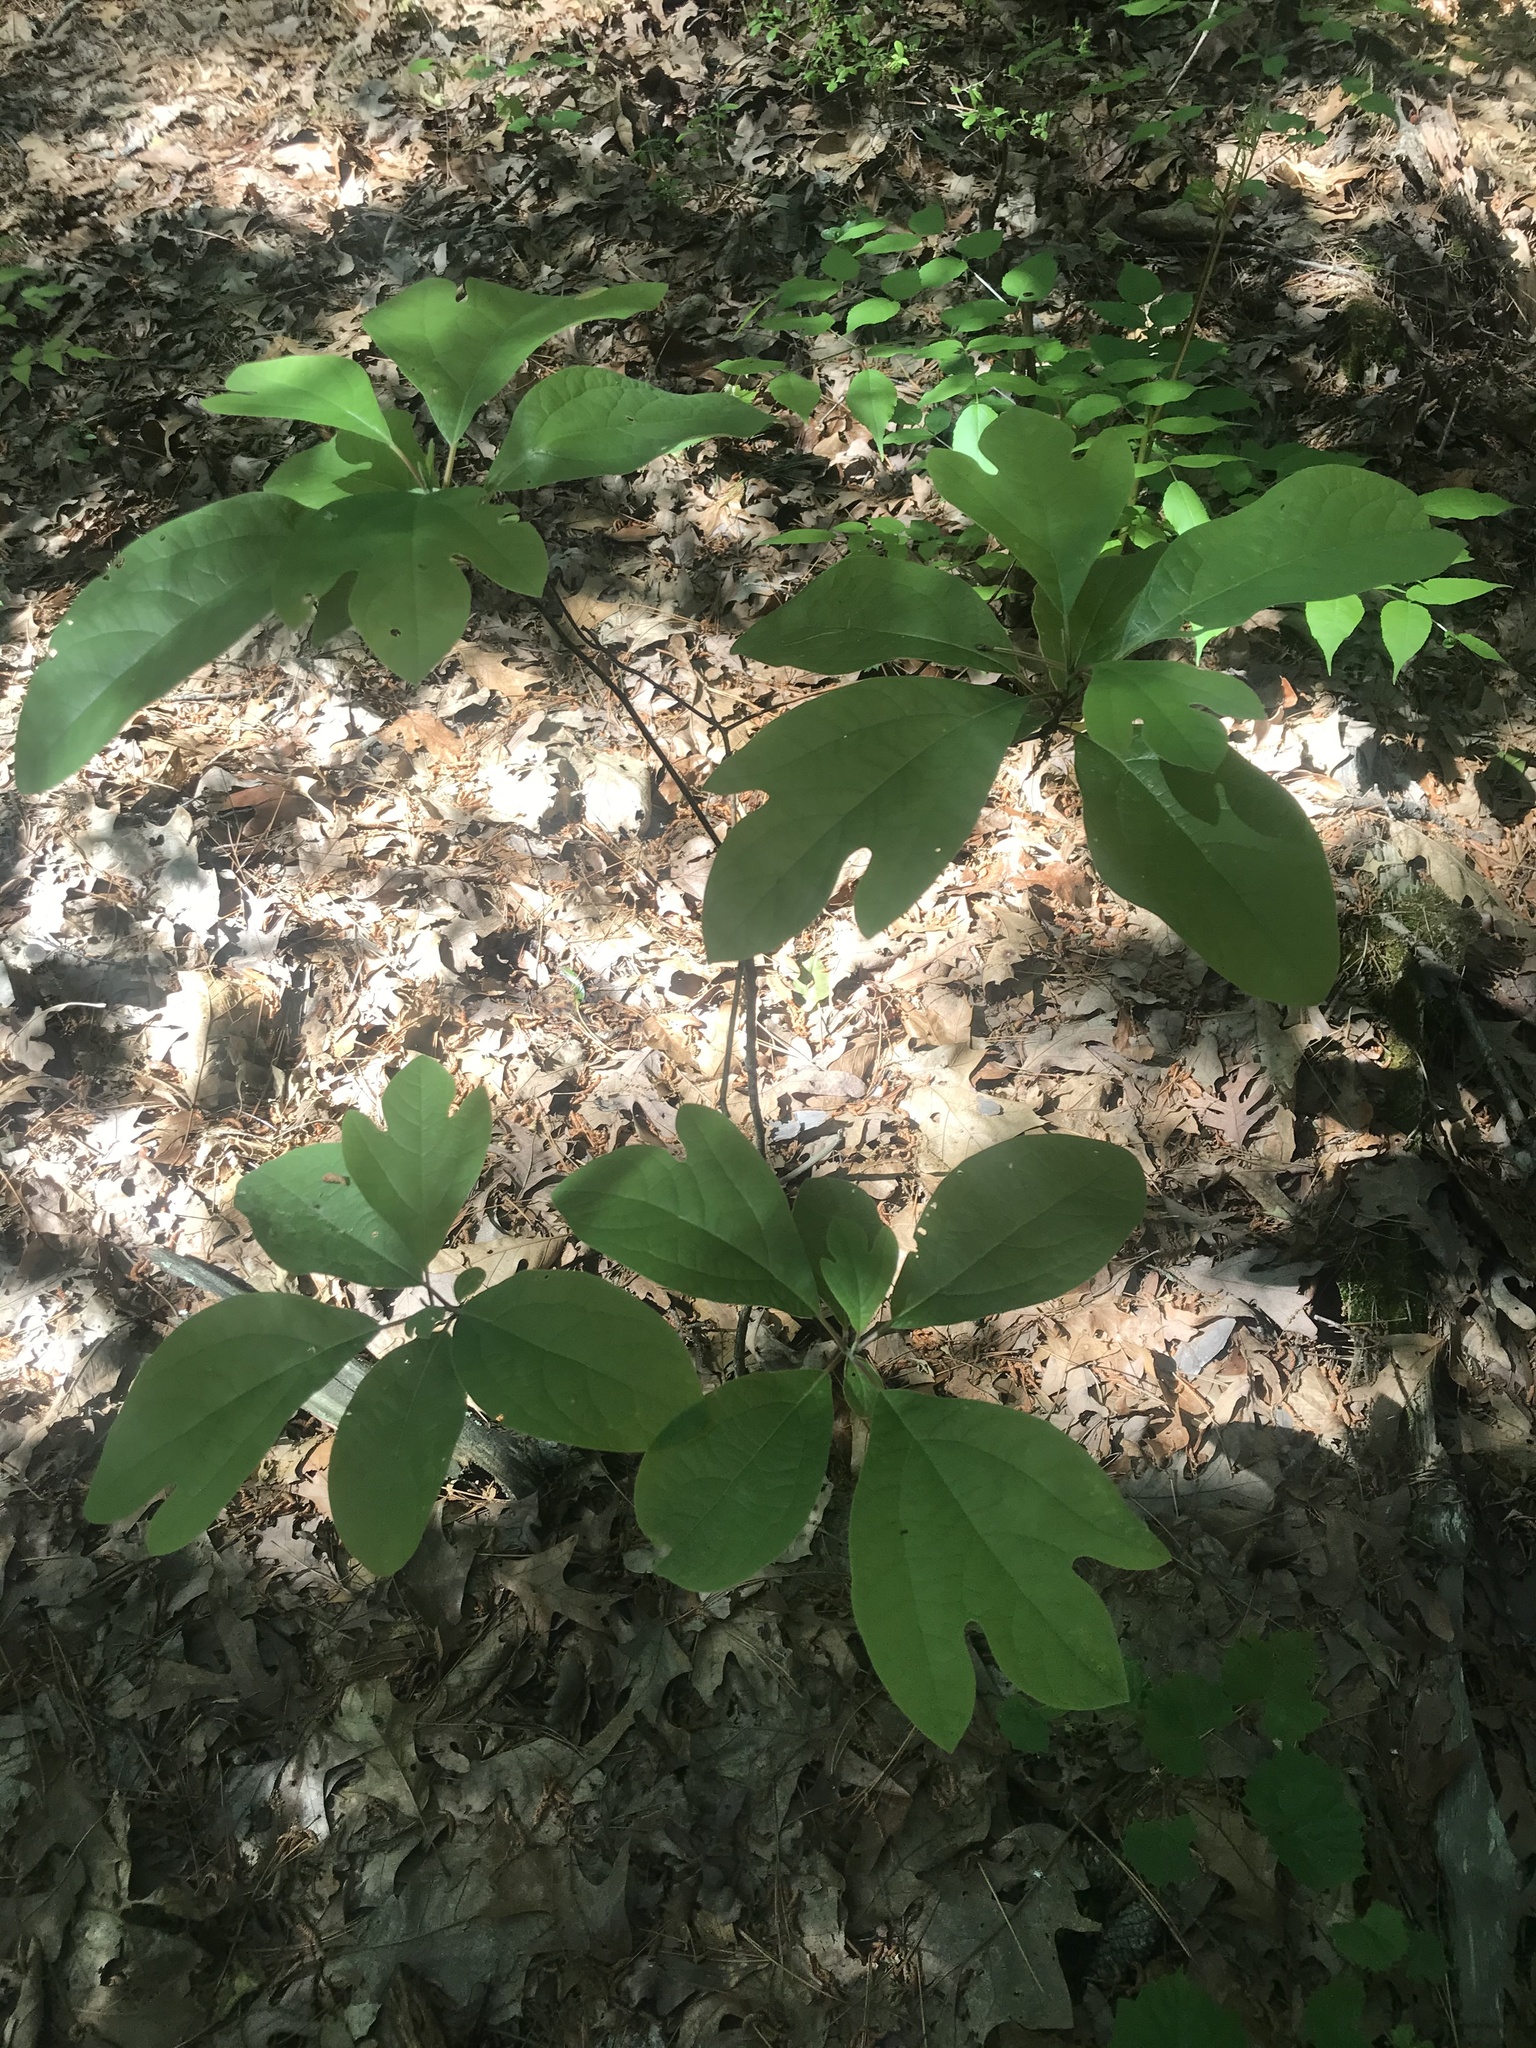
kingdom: Plantae
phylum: Tracheophyta
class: Magnoliopsida
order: Laurales
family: Lauraceae
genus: Sassafras
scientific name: Sassafras albidum
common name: Sassafras
